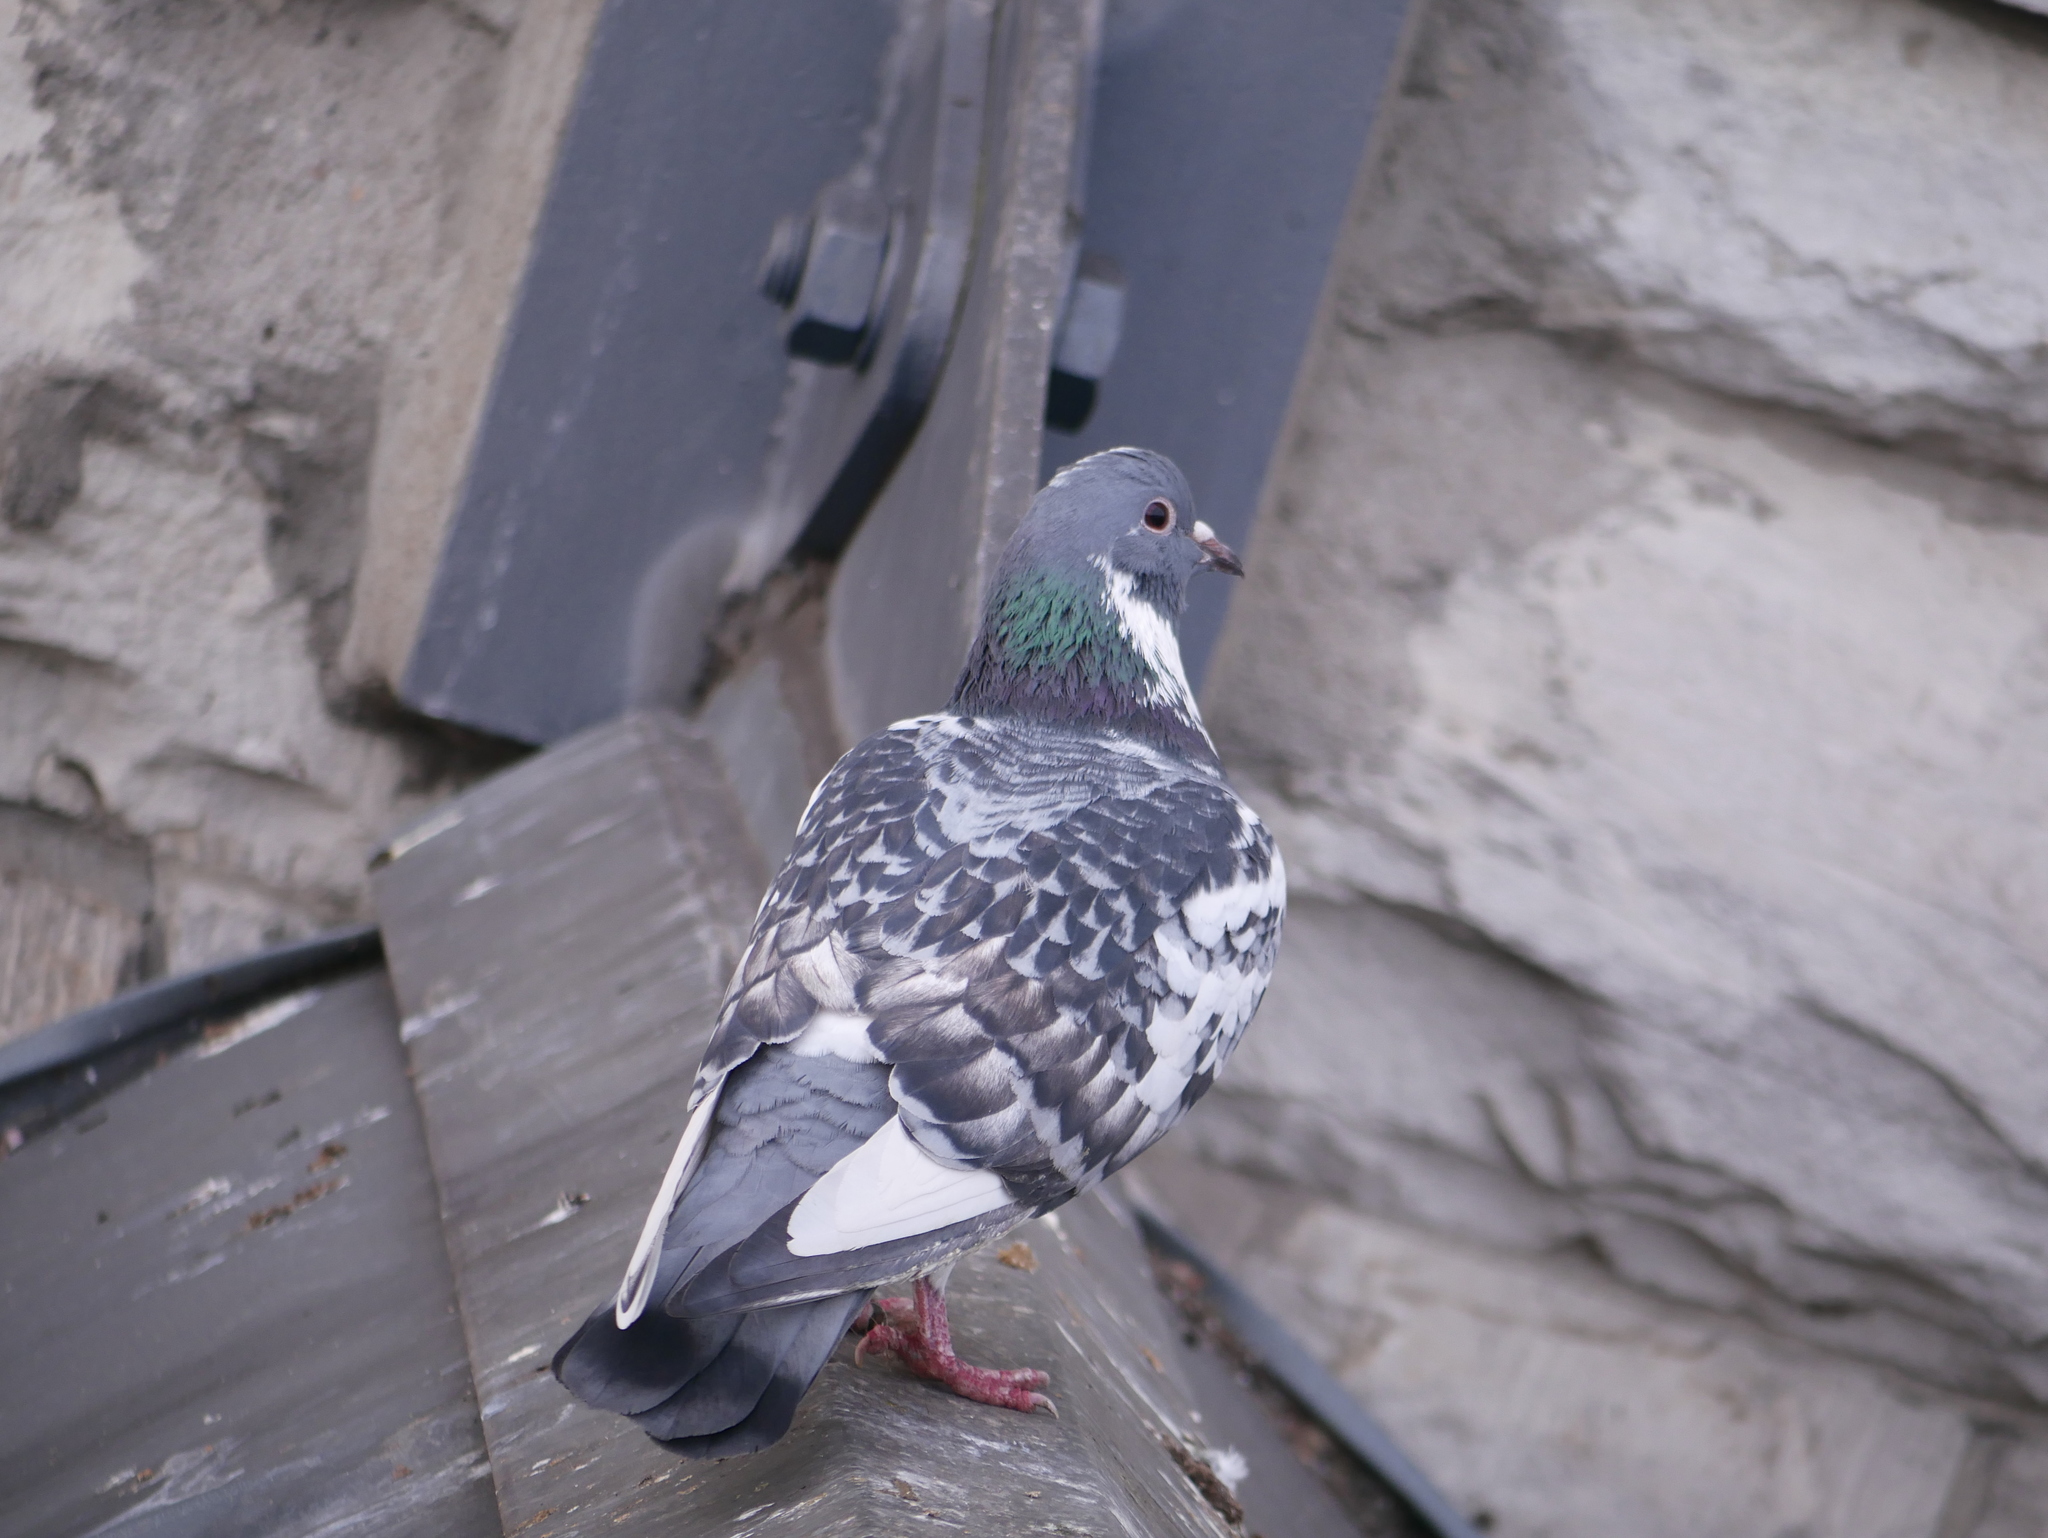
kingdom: Animalia
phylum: Chordata
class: Aves
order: Columbiformes
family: Columbidae
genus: Columba
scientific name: Columba livia
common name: Rock pigeon
